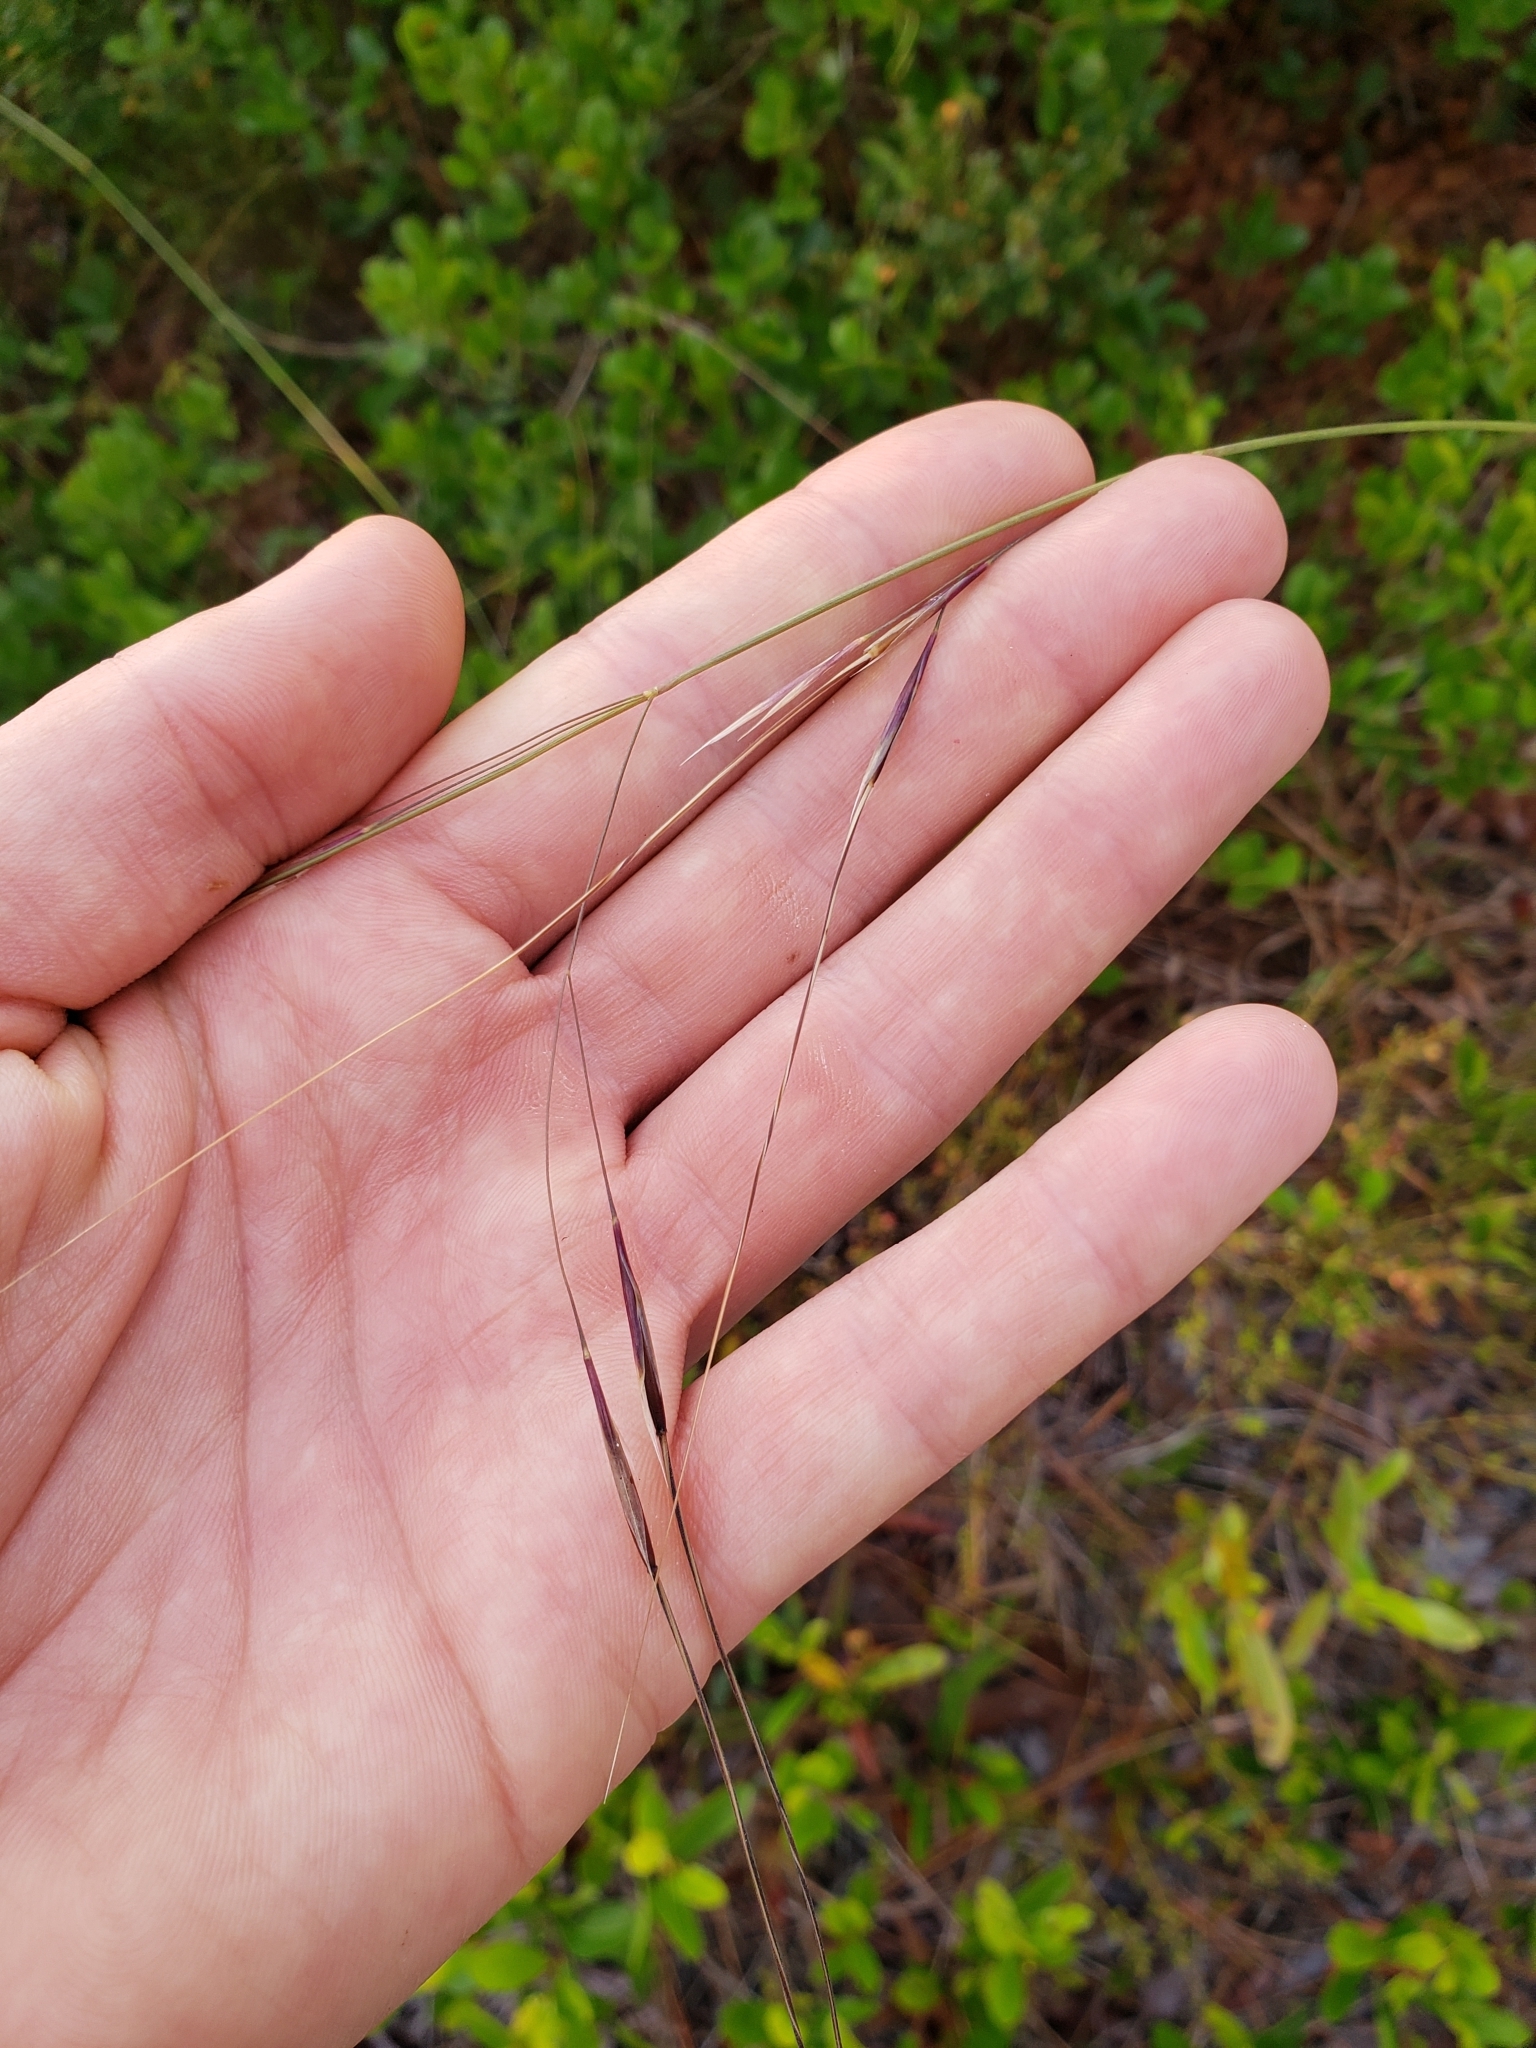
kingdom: Plantae
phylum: Tracheophyta
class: Liliopsida
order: Poales
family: Poaceae
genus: Piptochaetium
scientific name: Piptochaetium avenacioides
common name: Florida needlegrass
